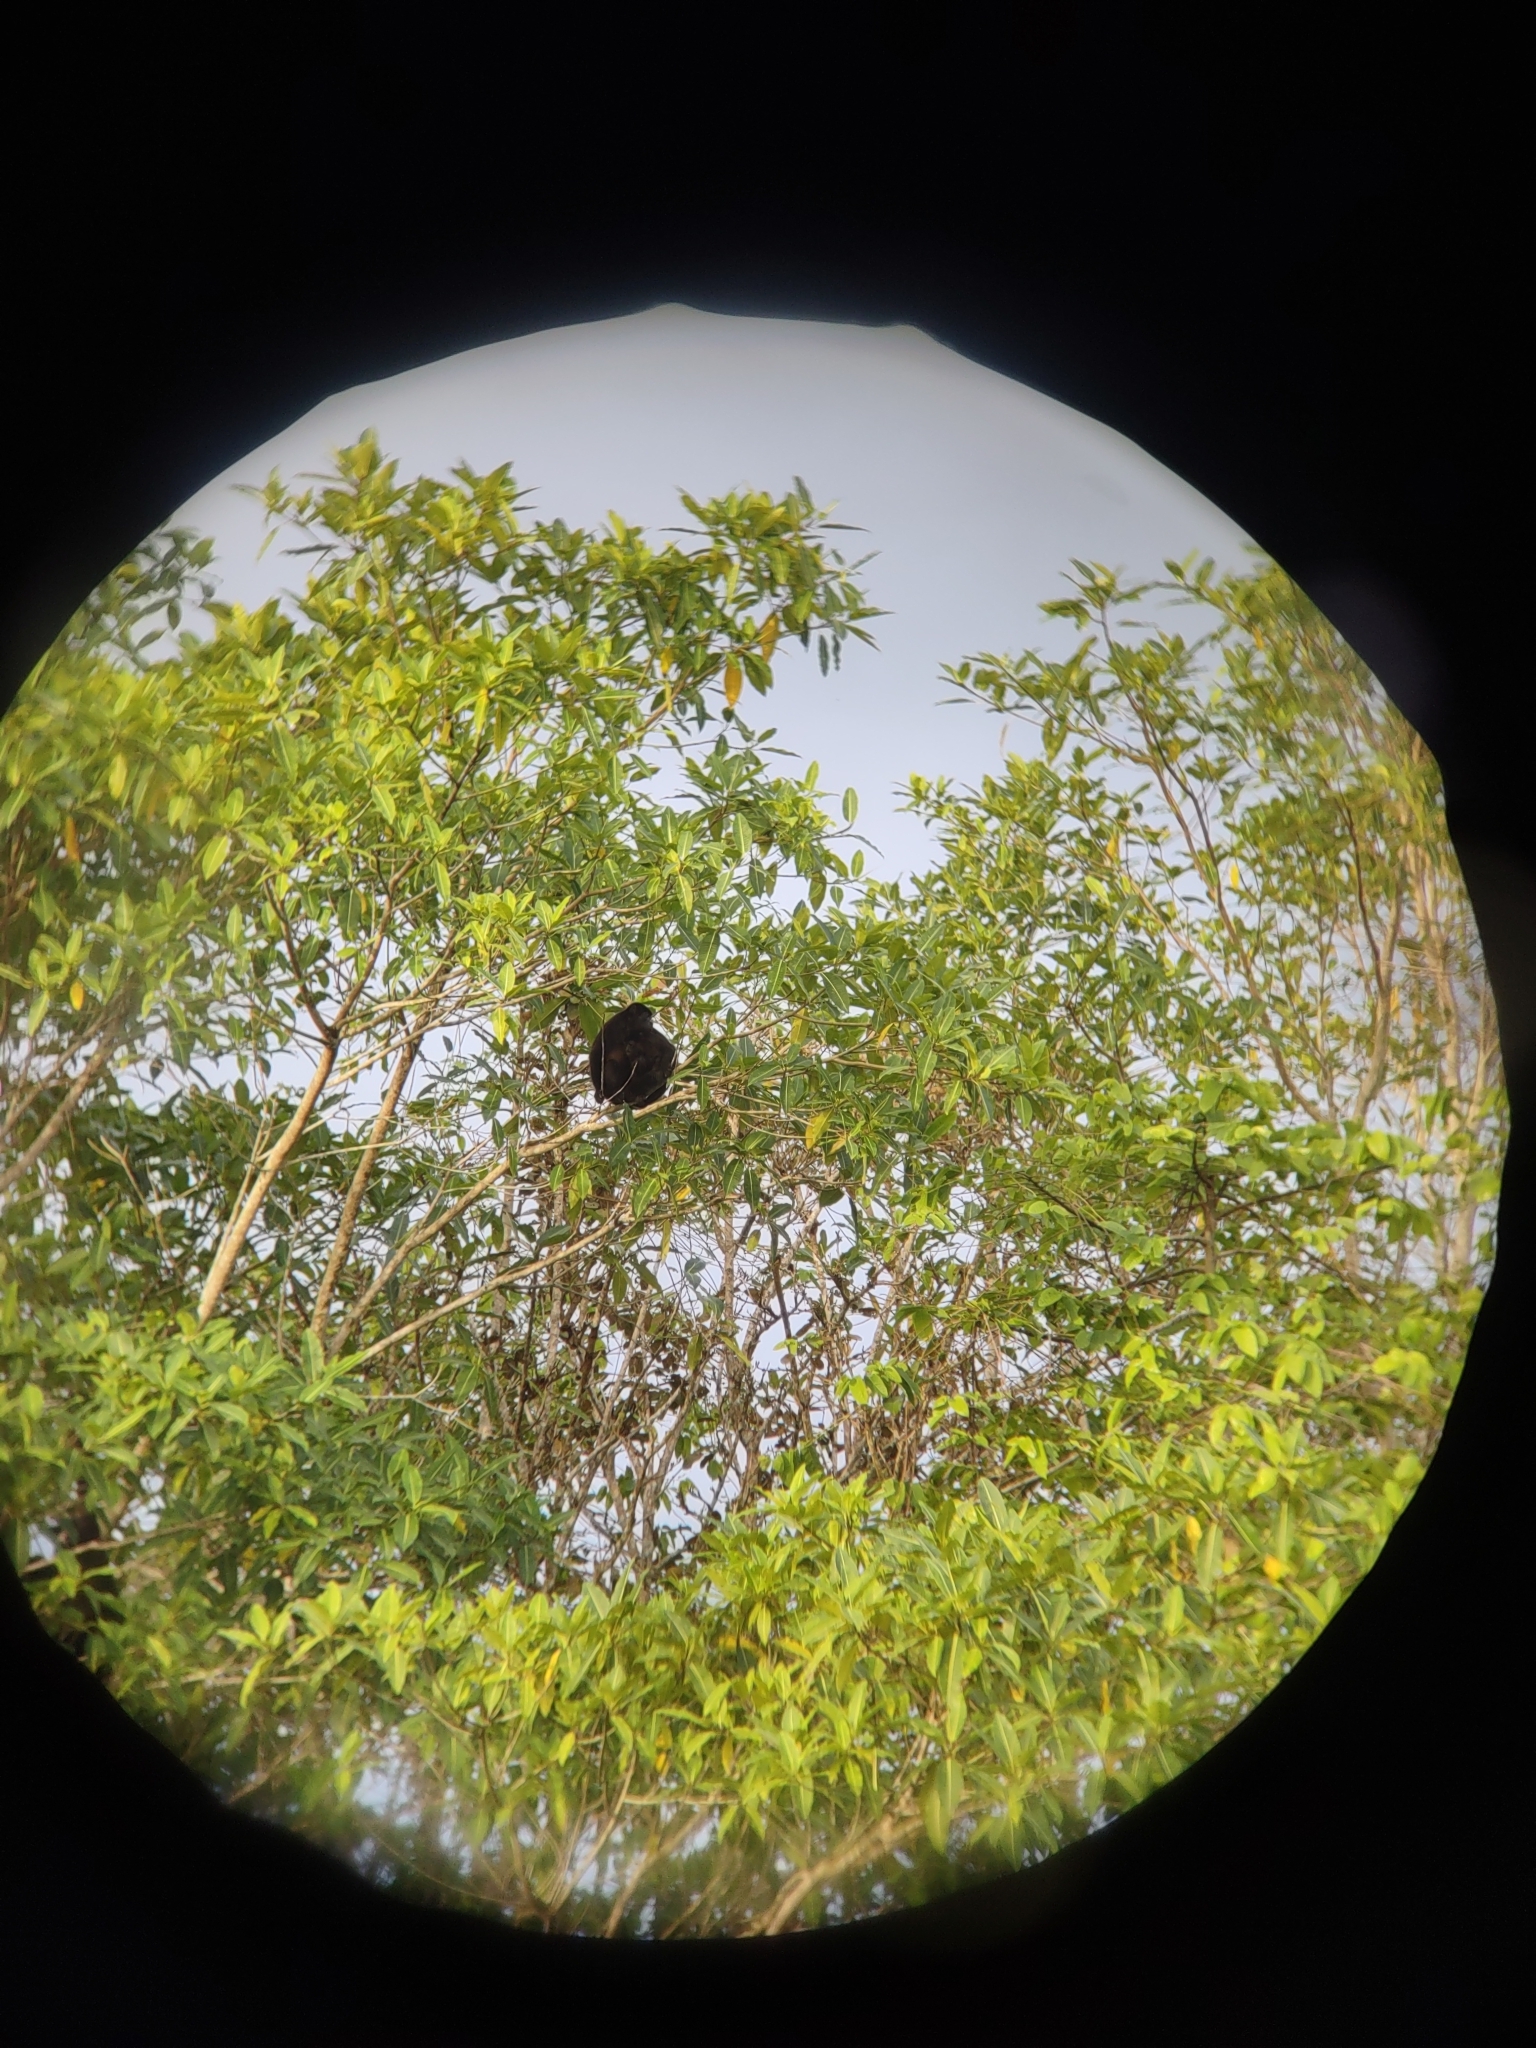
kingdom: Animalia
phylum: Chordata
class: Mammalia
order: Primates
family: Atelidae
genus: Alouatta
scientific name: Alouatta palliata
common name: Mantled howler
